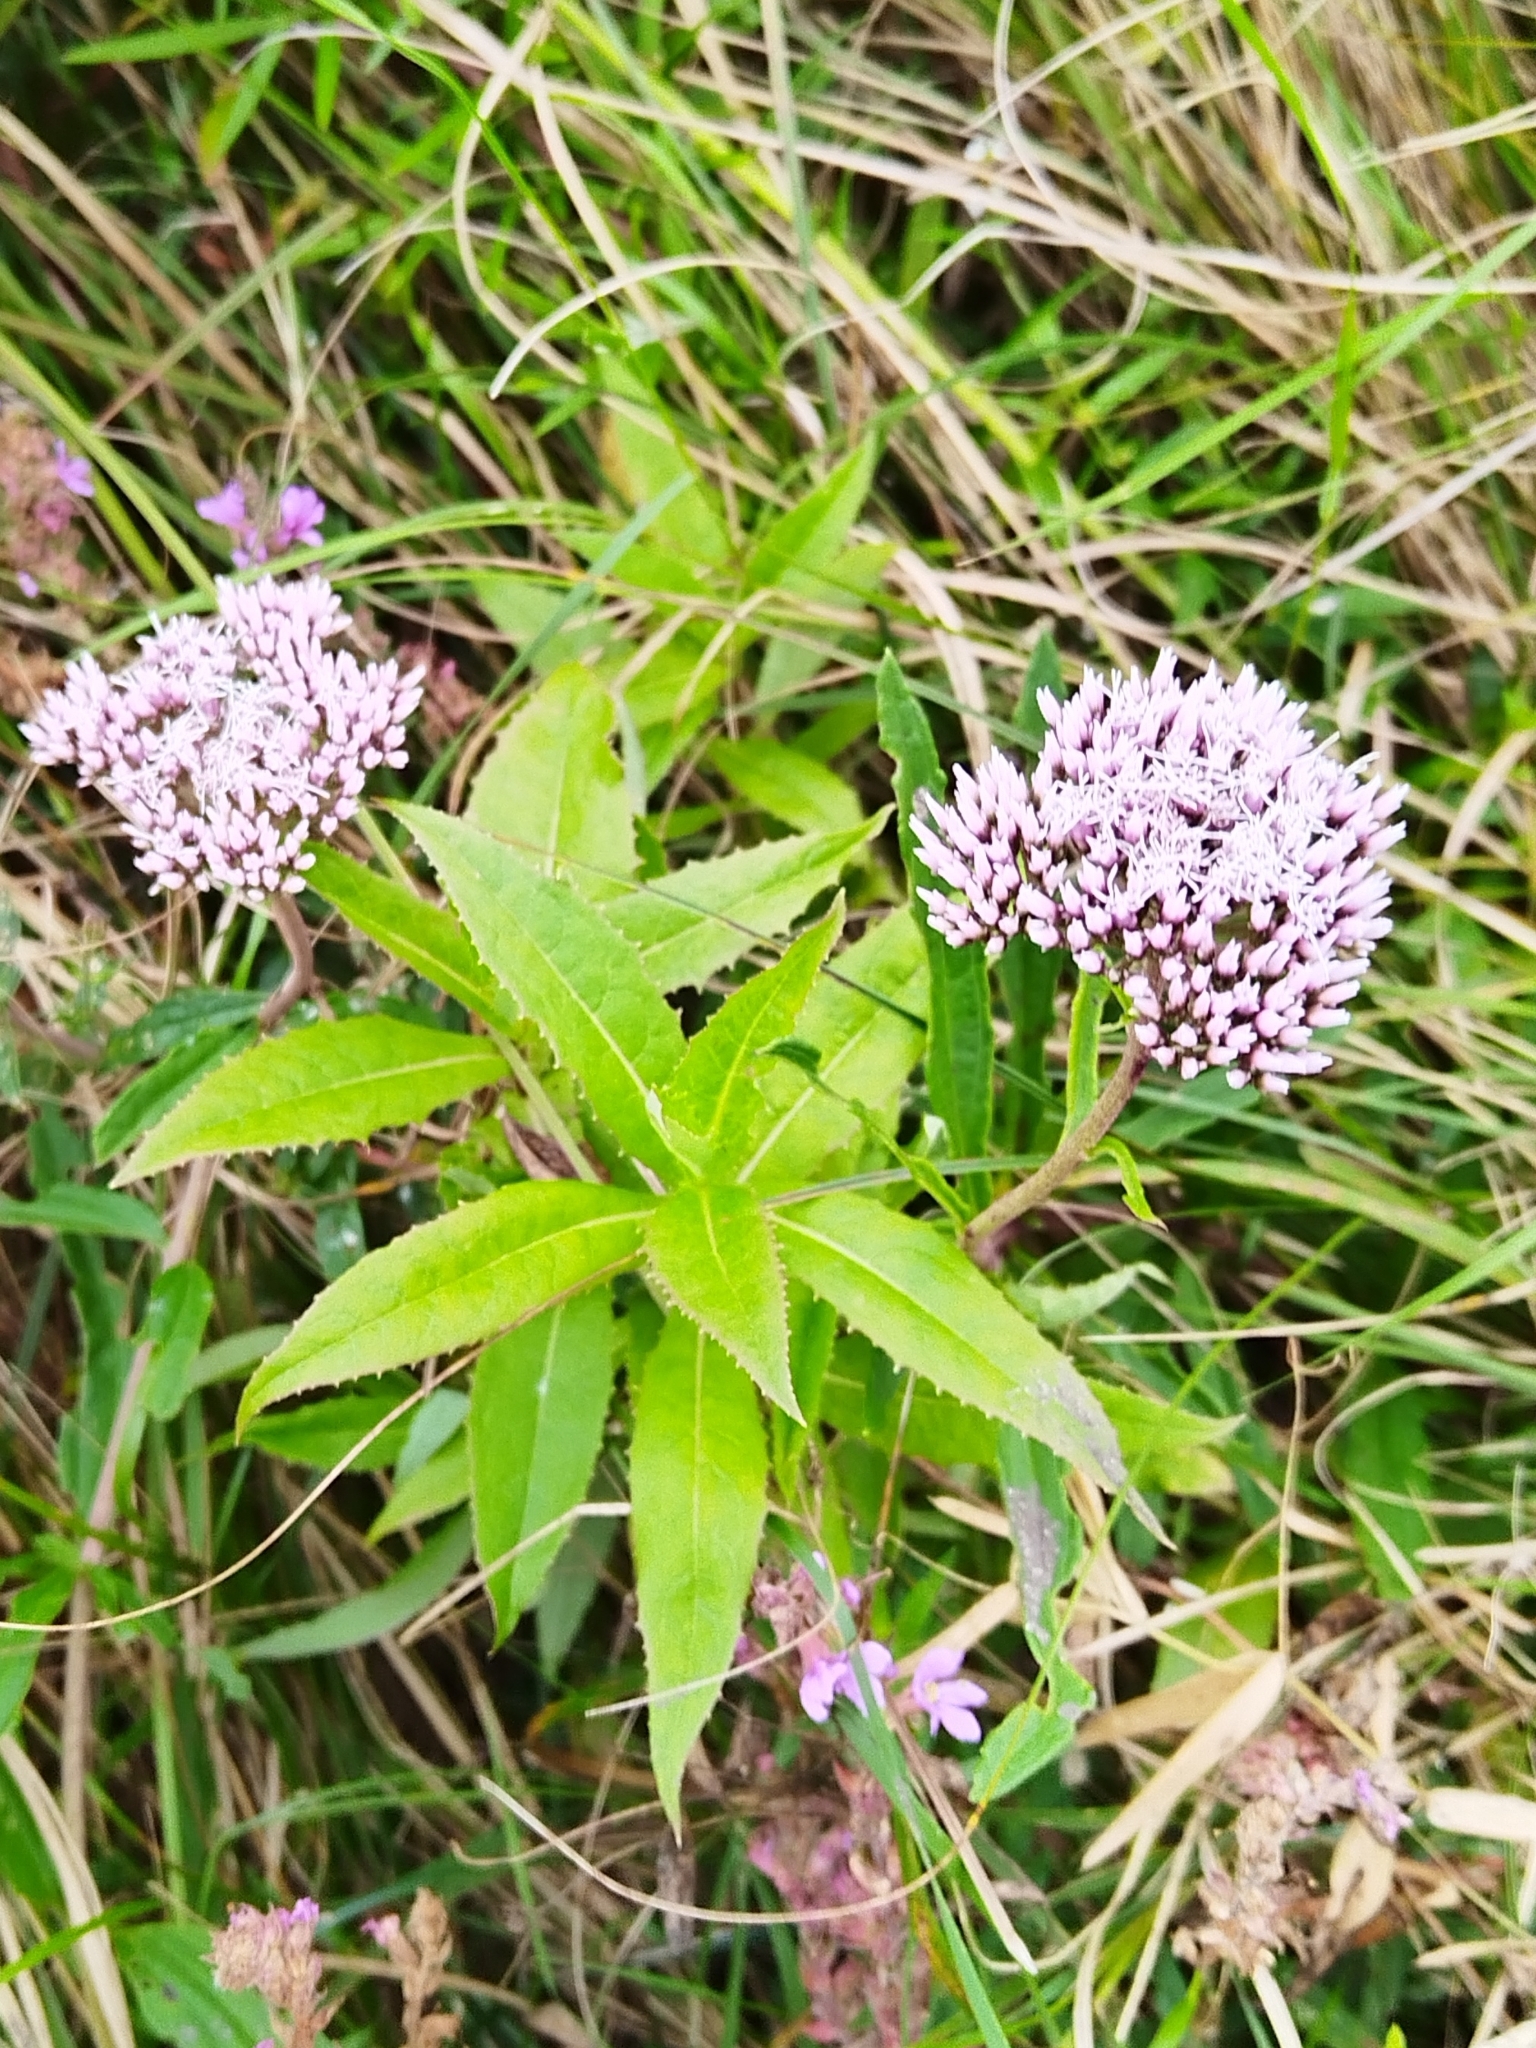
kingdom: Plantae
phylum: Tracheophyta
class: Magnoliopsida
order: Asterales
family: Asteraceae
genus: Eupatorium
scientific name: Eupatorium lindleyanum
